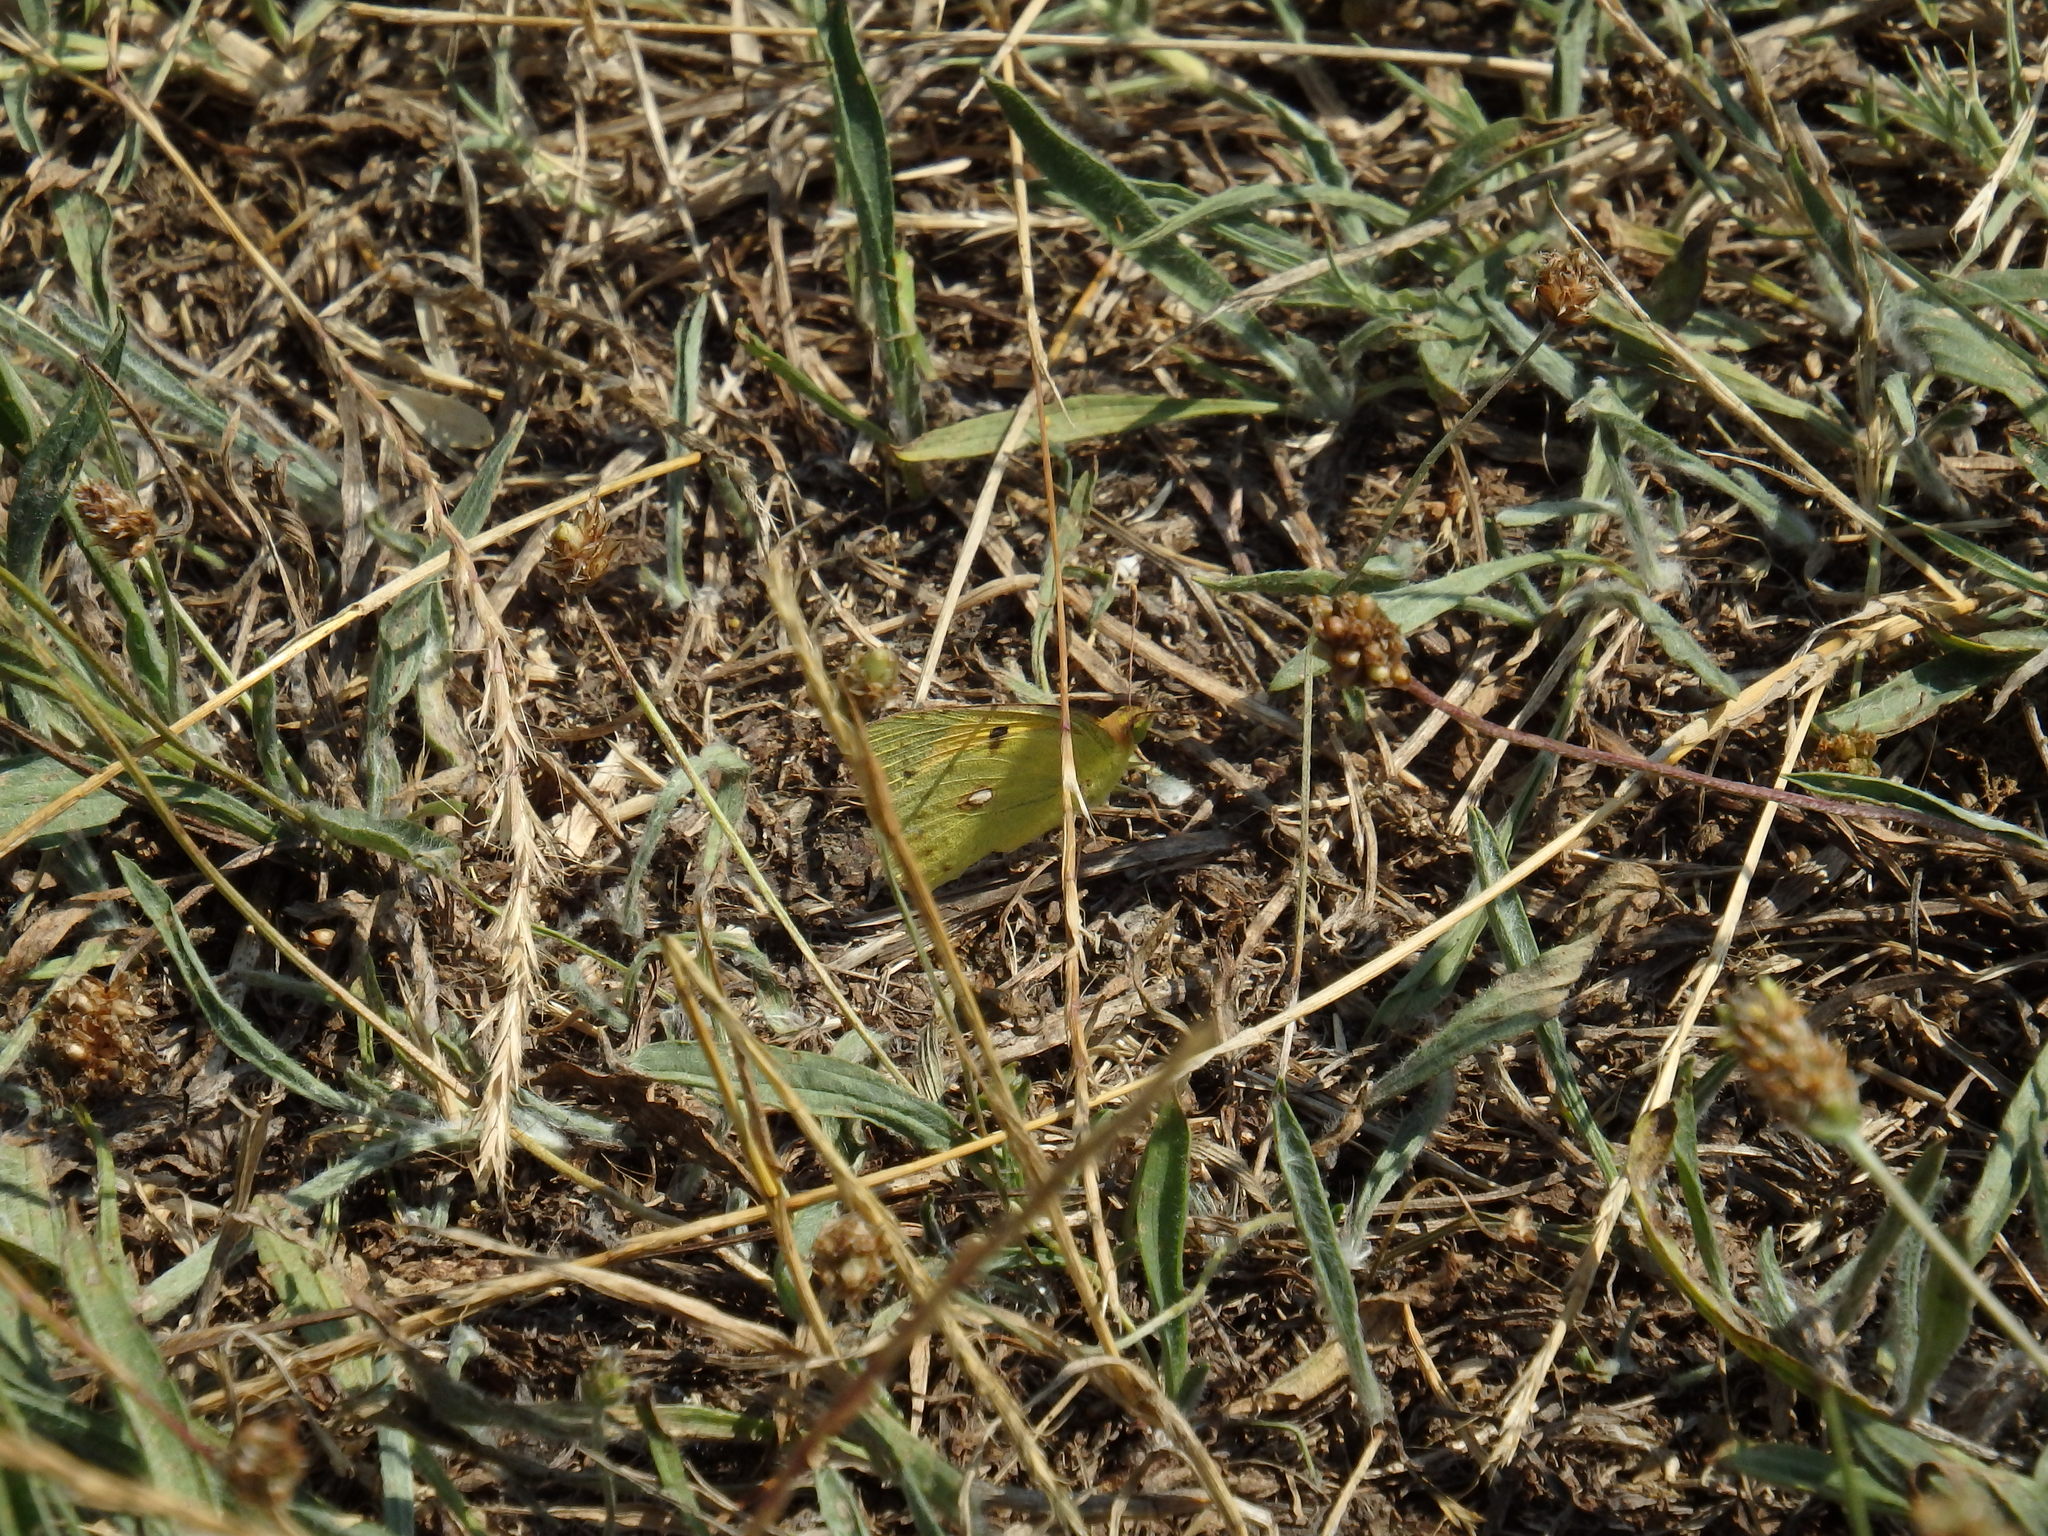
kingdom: Animalia
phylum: Arthropoda
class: Insecta
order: Lepidoptera
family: Pieridae
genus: Colias
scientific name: Colias croceus
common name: Clouded yellow
